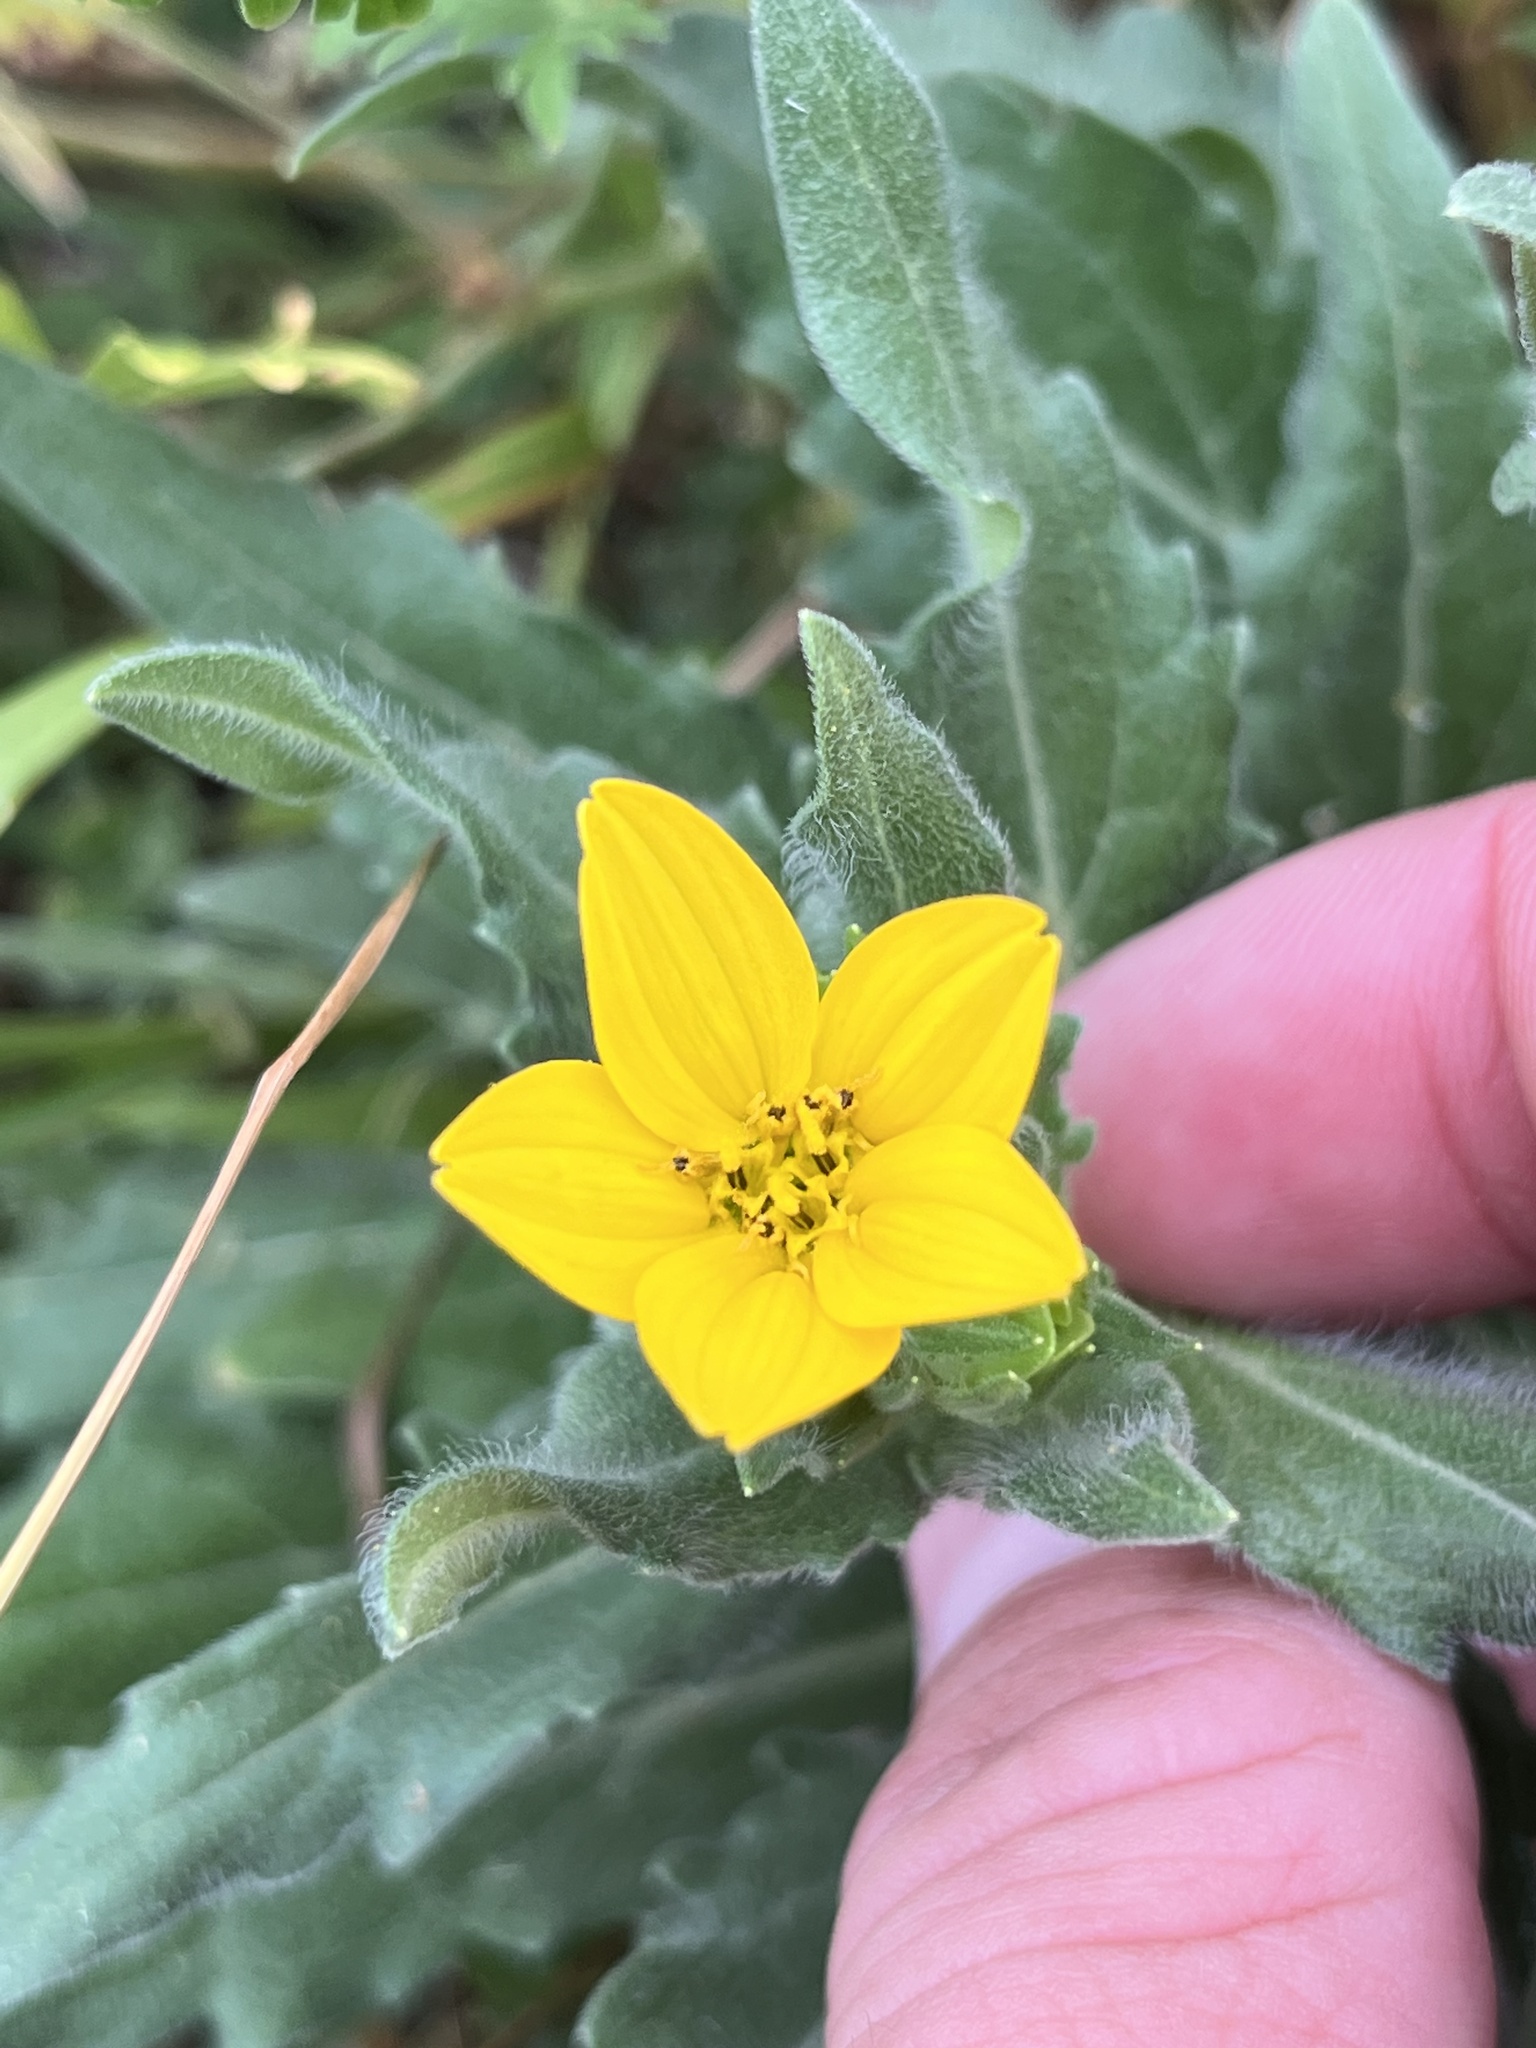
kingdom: Plantae
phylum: Tracheophyta
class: Magnoliopsida
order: Asterales
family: Asteraceae
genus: Lindheimera
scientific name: Lindheimera texana
